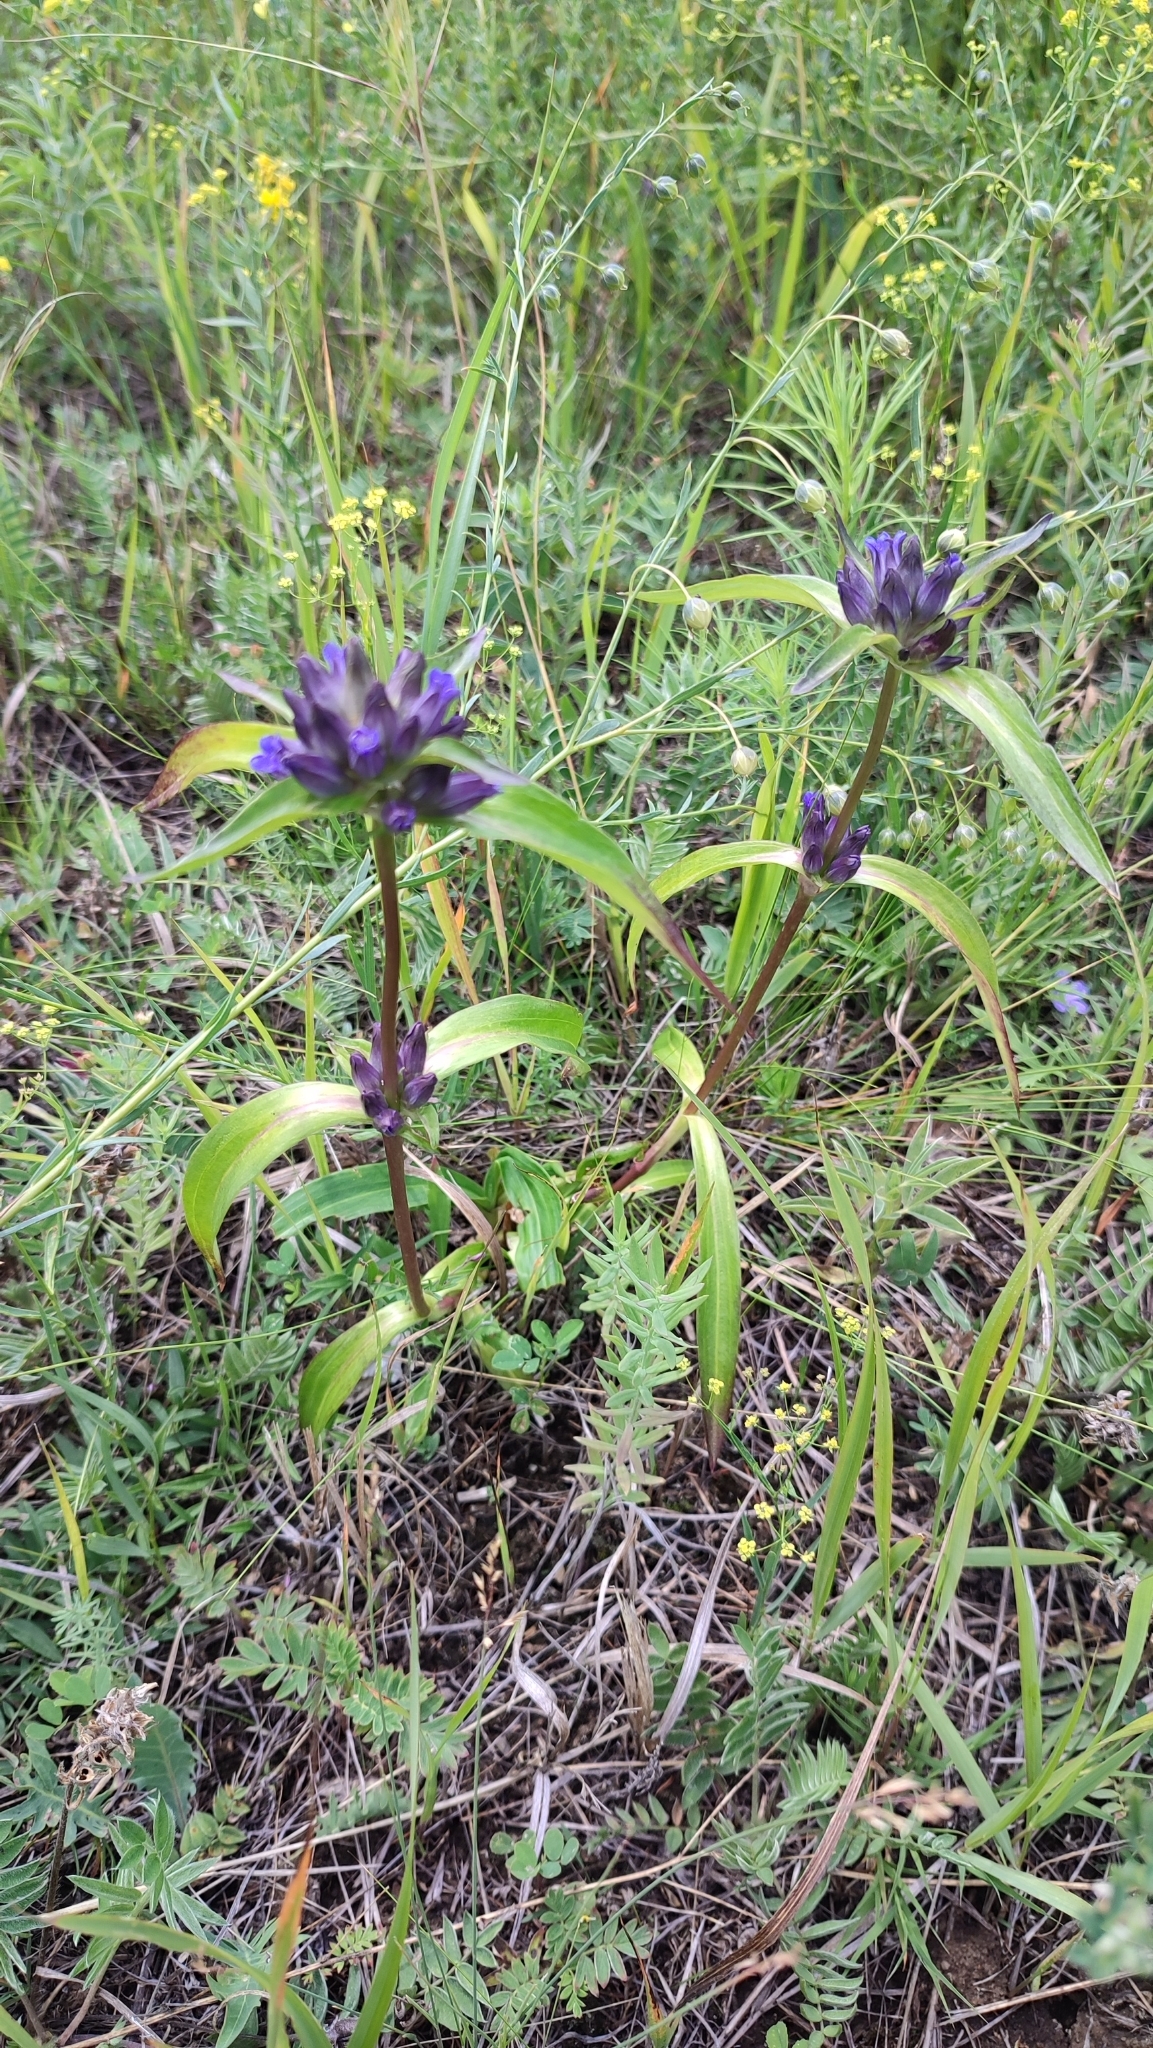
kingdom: Plantae
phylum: Tracheophyta
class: Magnoliopsida
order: Gentianales
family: Gentianaceae
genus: Gentiana
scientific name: Gentiana macrophylla
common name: Large-leaf gentian
